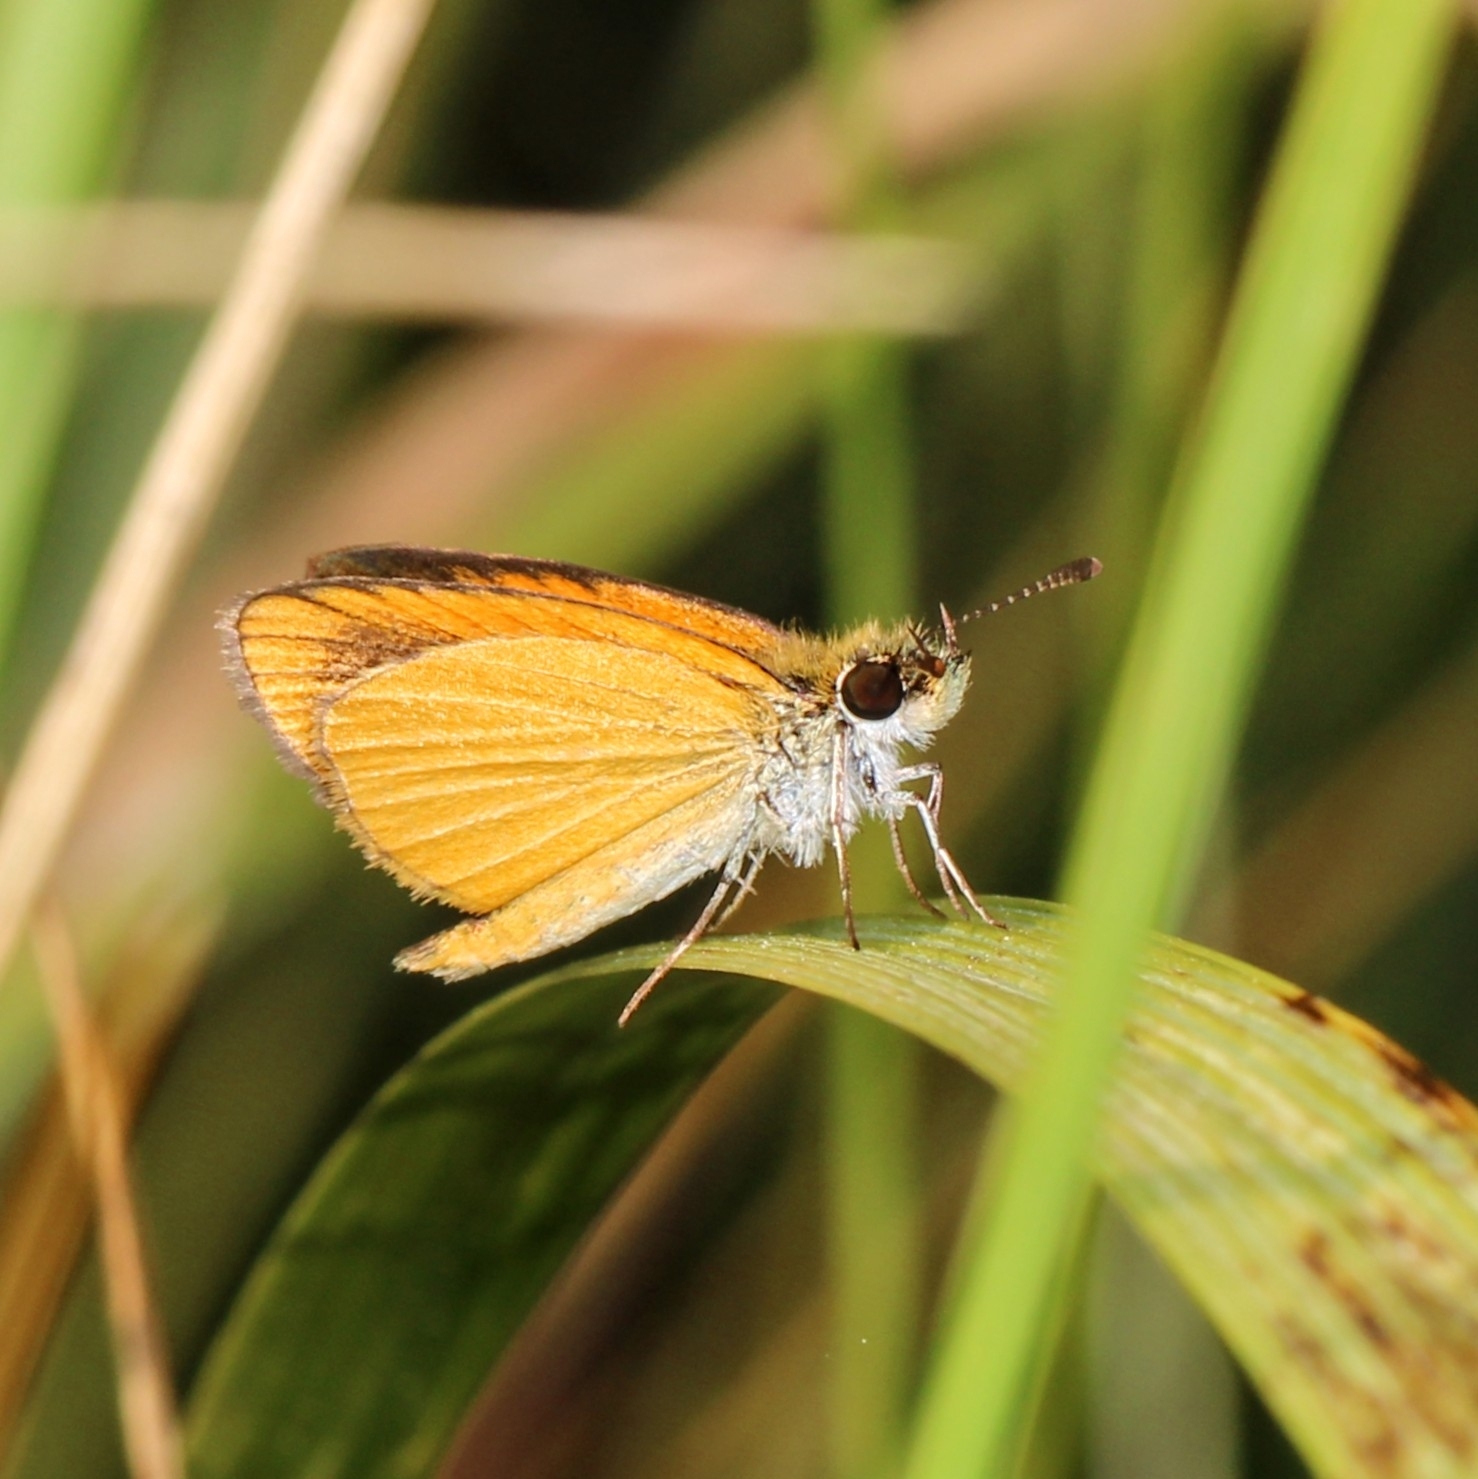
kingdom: Animalia
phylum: Arthropoda
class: Insecta
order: Lepidoptera
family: Hesperiidae
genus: Ancyloxypha
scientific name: Ancyloxypha numitor
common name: Least skipper
